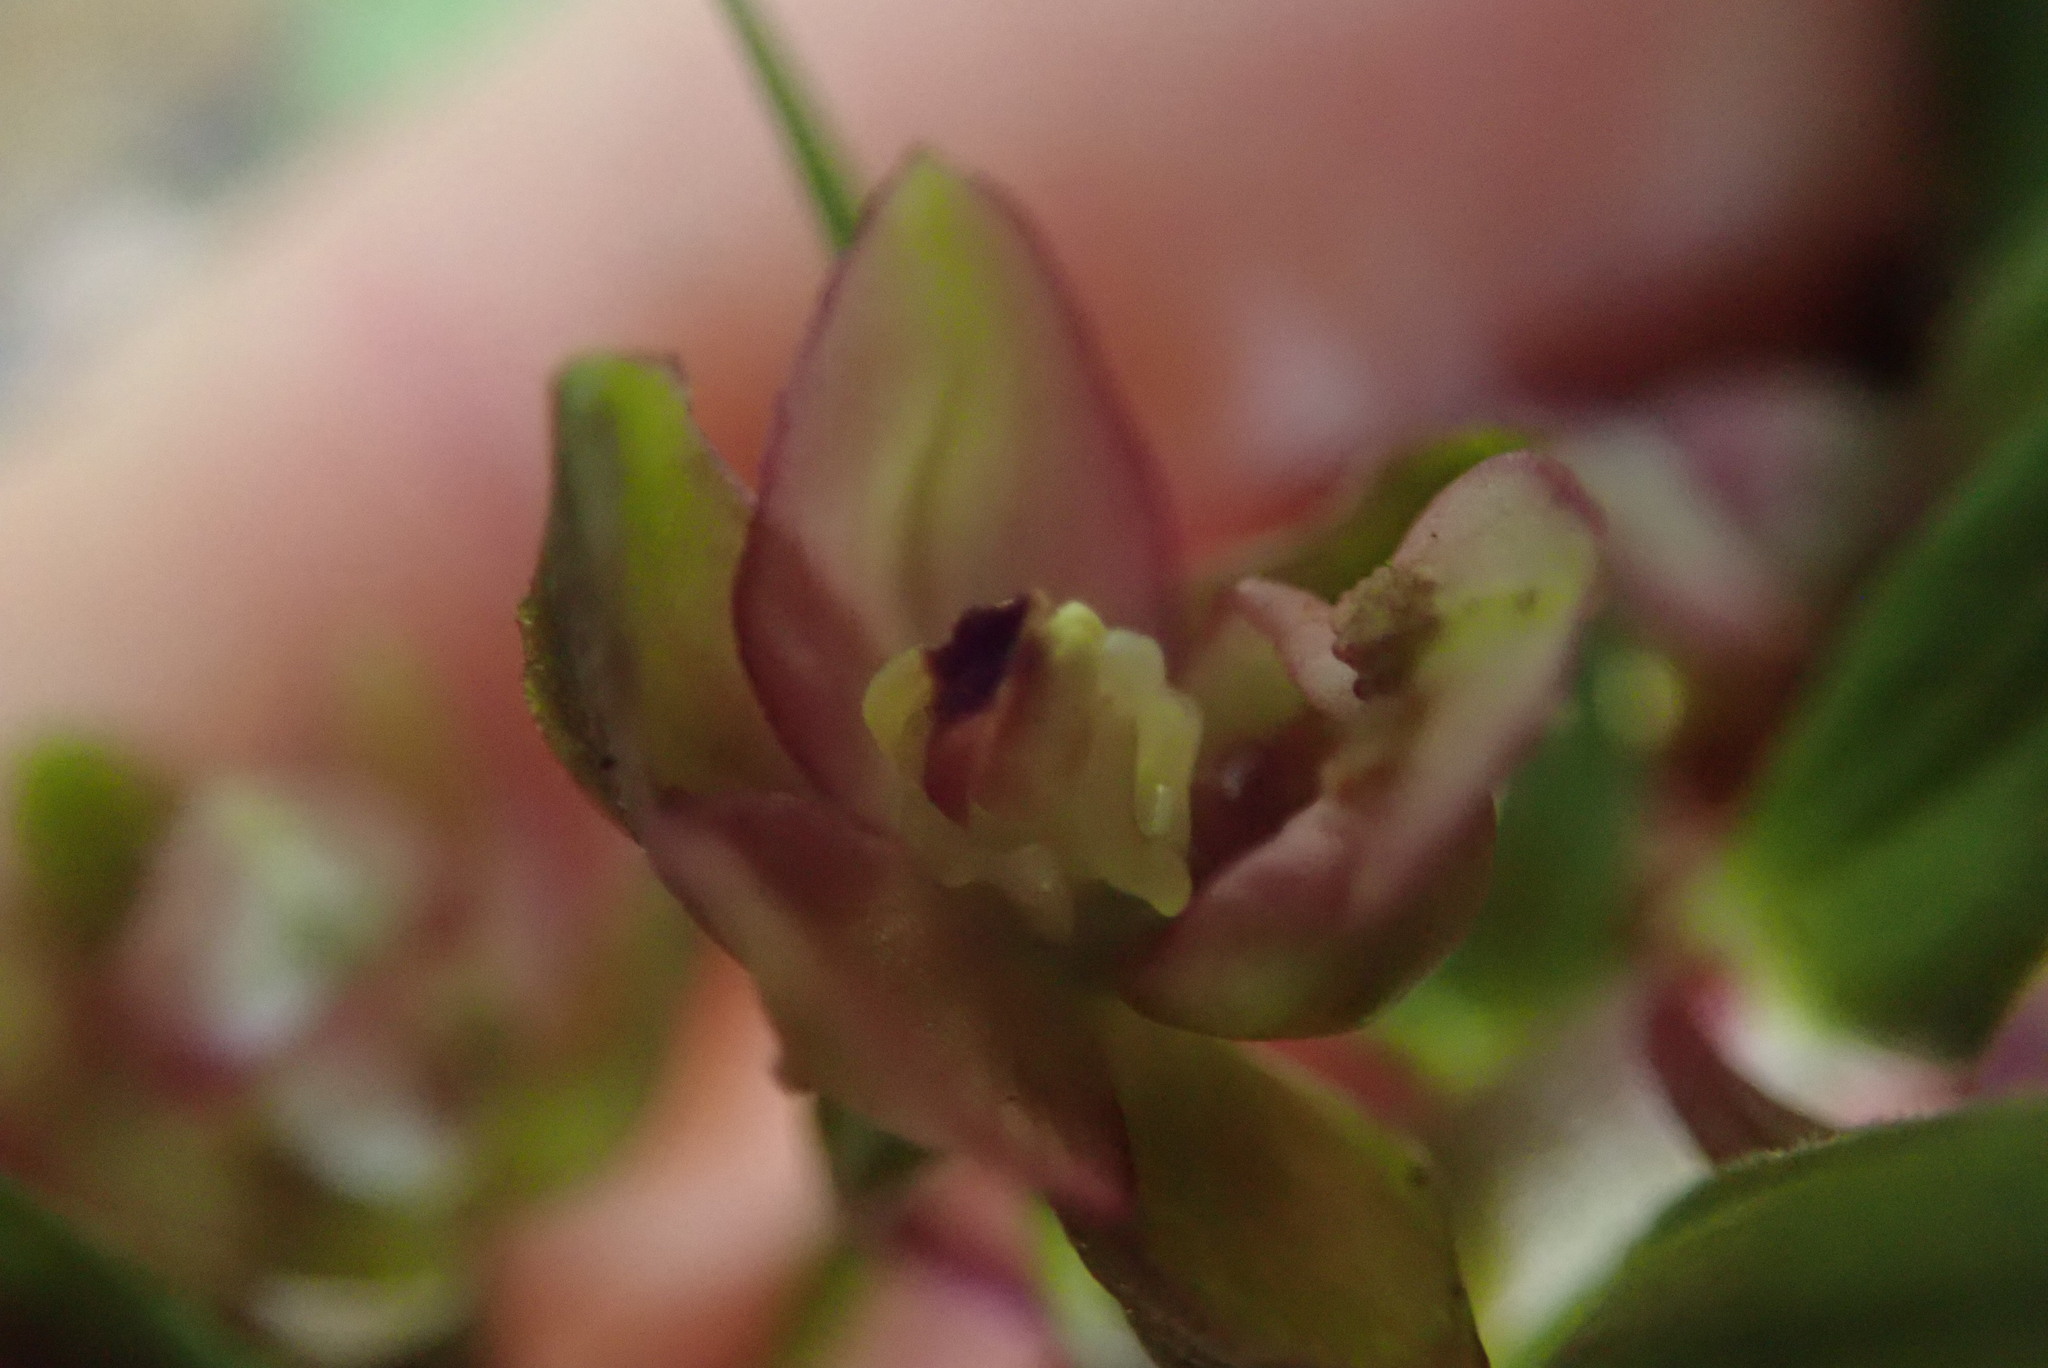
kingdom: Plantae
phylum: Tracheophyta
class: Liliopsida
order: Asparagales
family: Orchidaceae
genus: Epipactis
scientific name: Epipactis helleborine
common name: Broad-leaved helleborine
